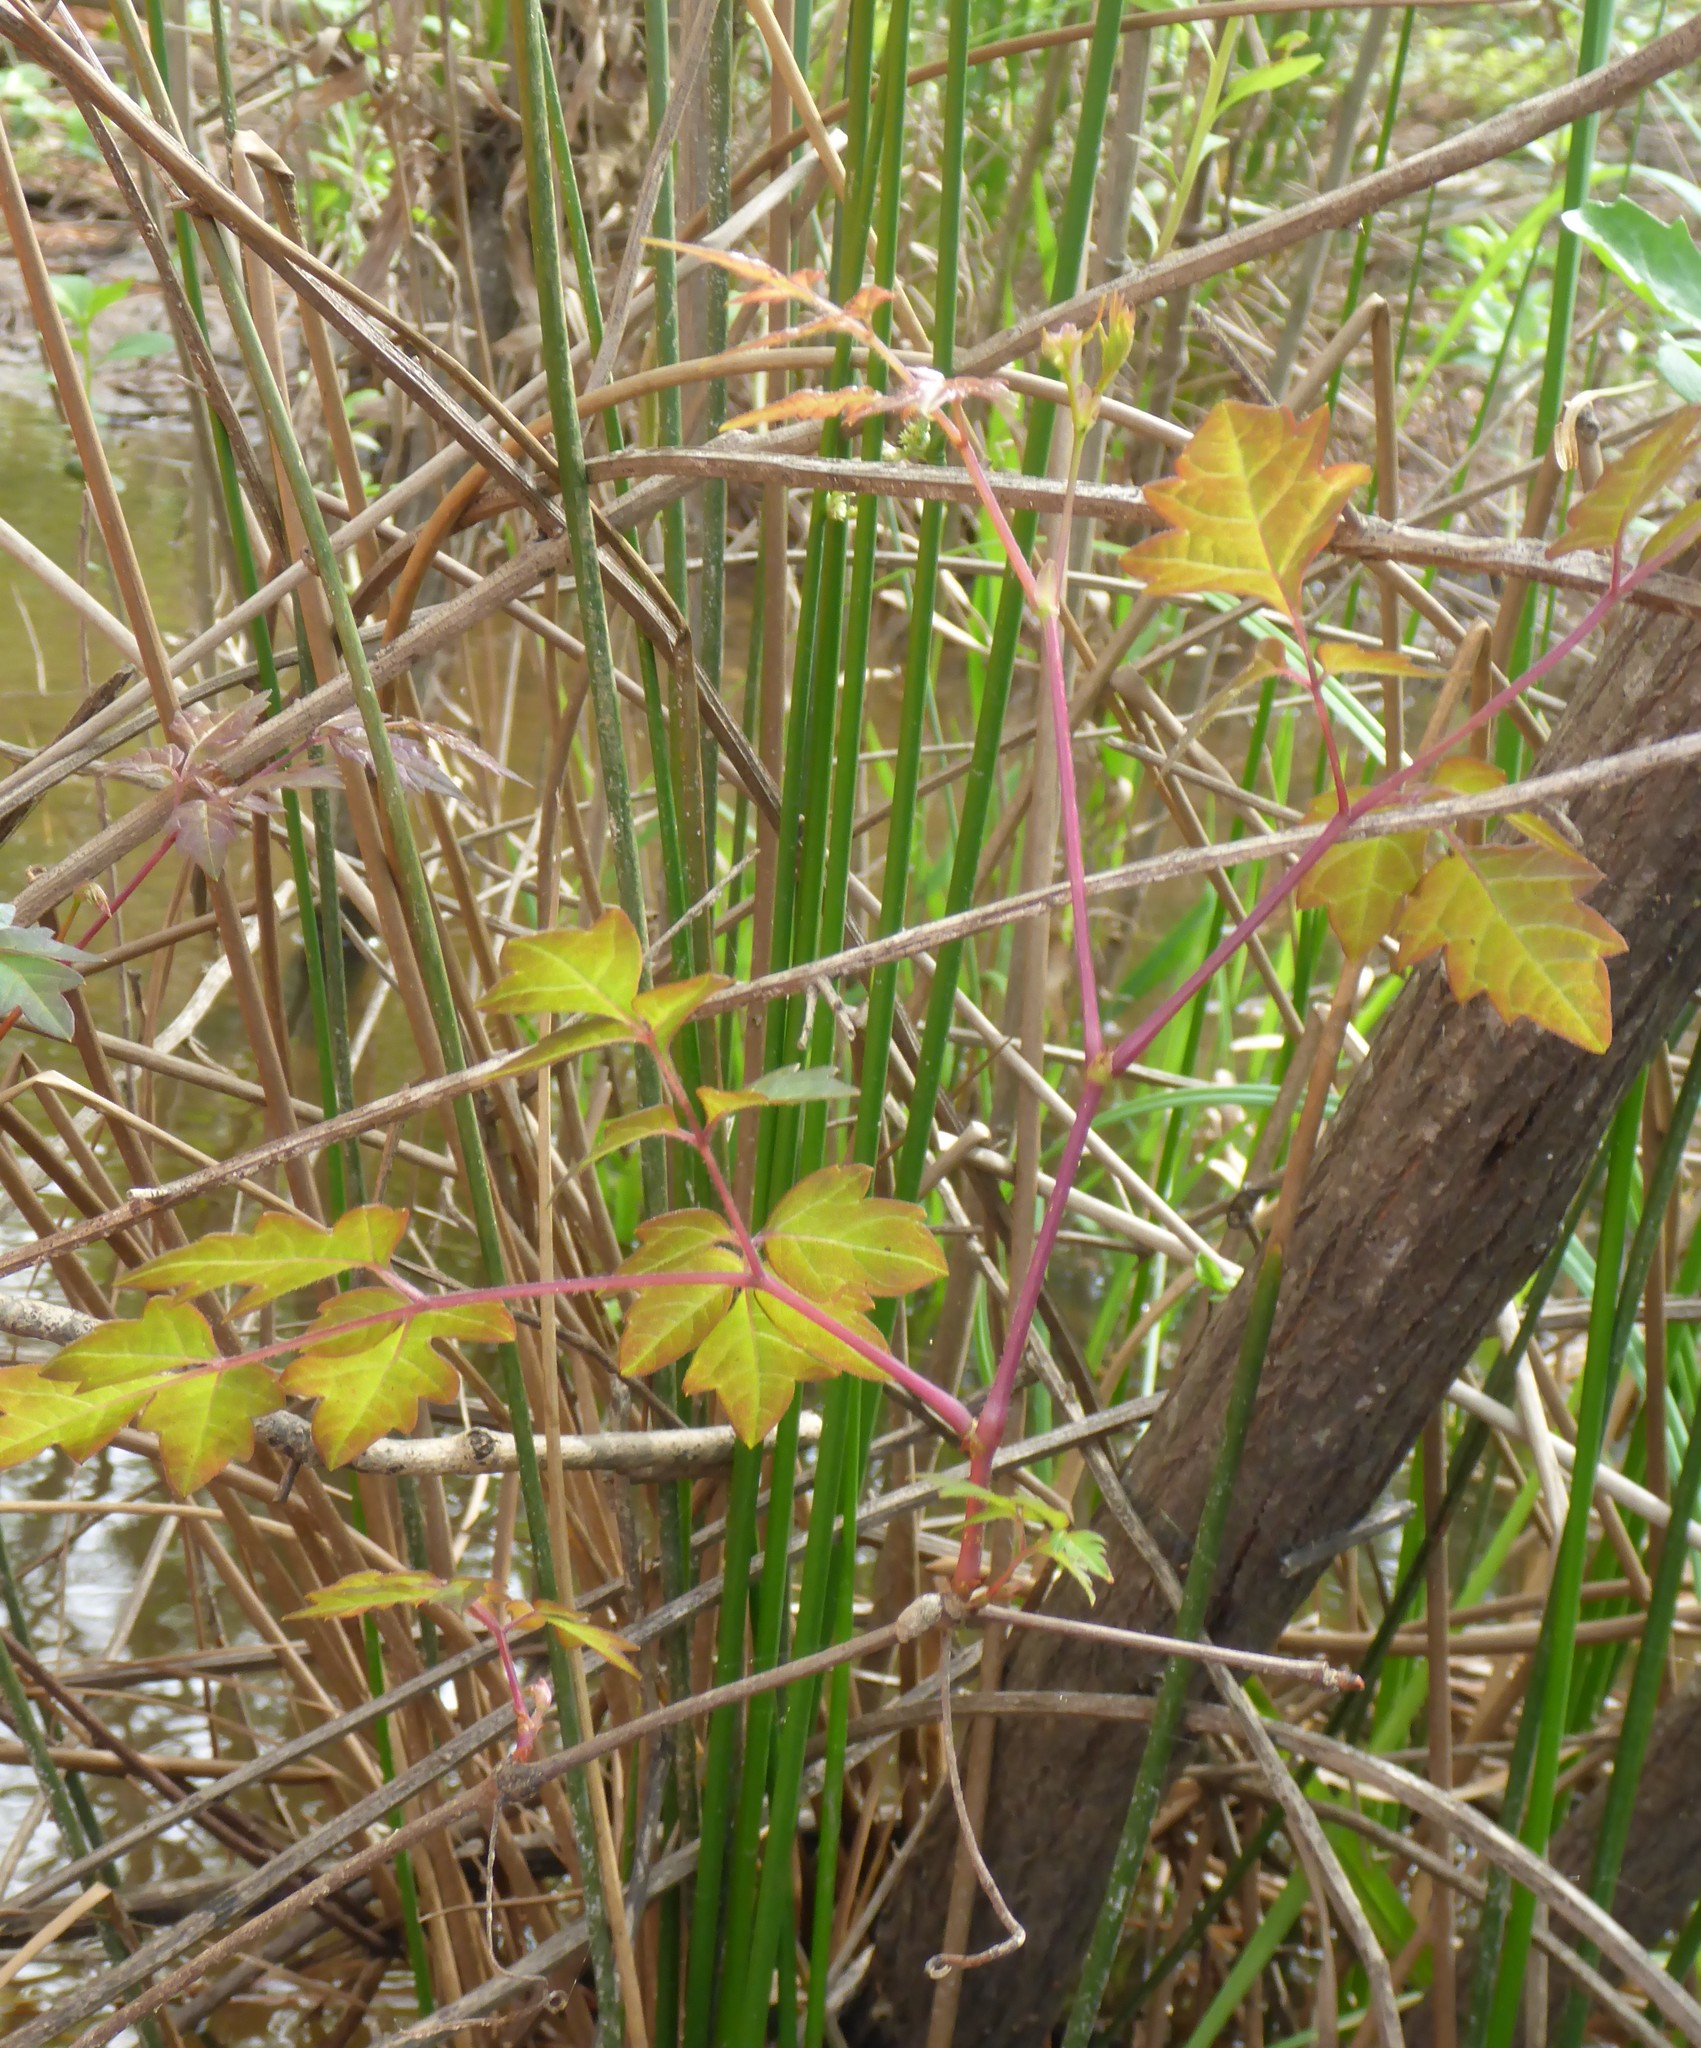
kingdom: Plantae
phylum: Tracheophyta
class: Magnoliopsida
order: Vitales
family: Vitaceae
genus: Nekemias
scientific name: Nekemias arborea
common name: Peppervine
